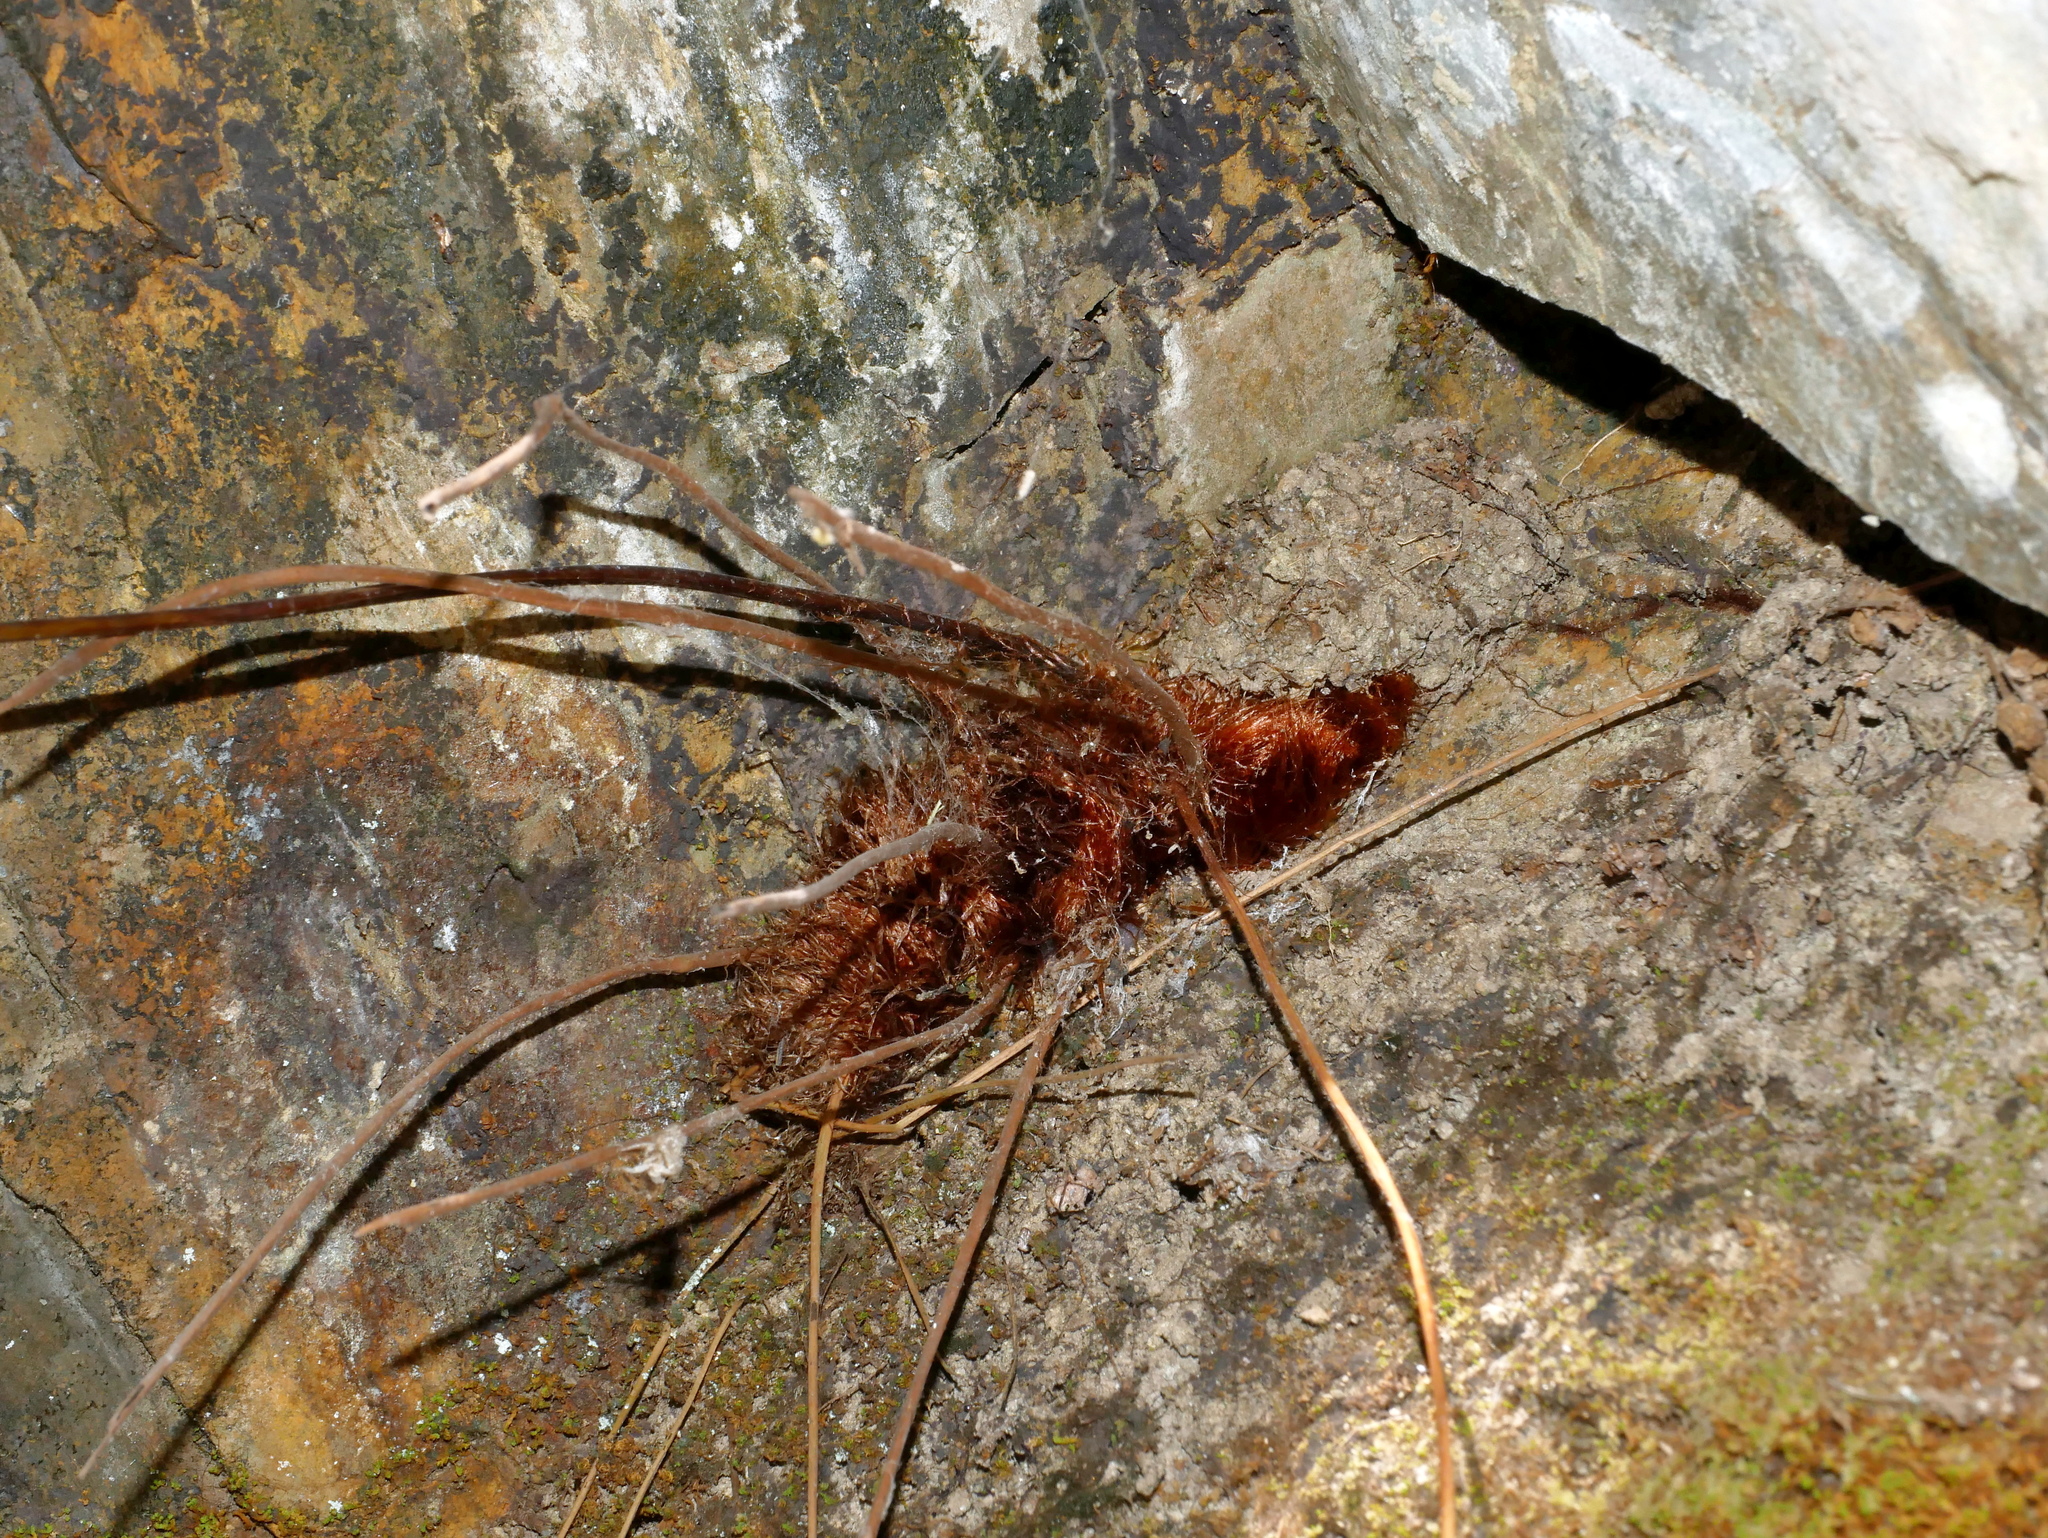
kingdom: Plantae
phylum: Tracheophyta
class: Polypodiopsida
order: Polypodiales
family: Hypodematiaceae
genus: Hypodematium
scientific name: Hypodematium shingii
